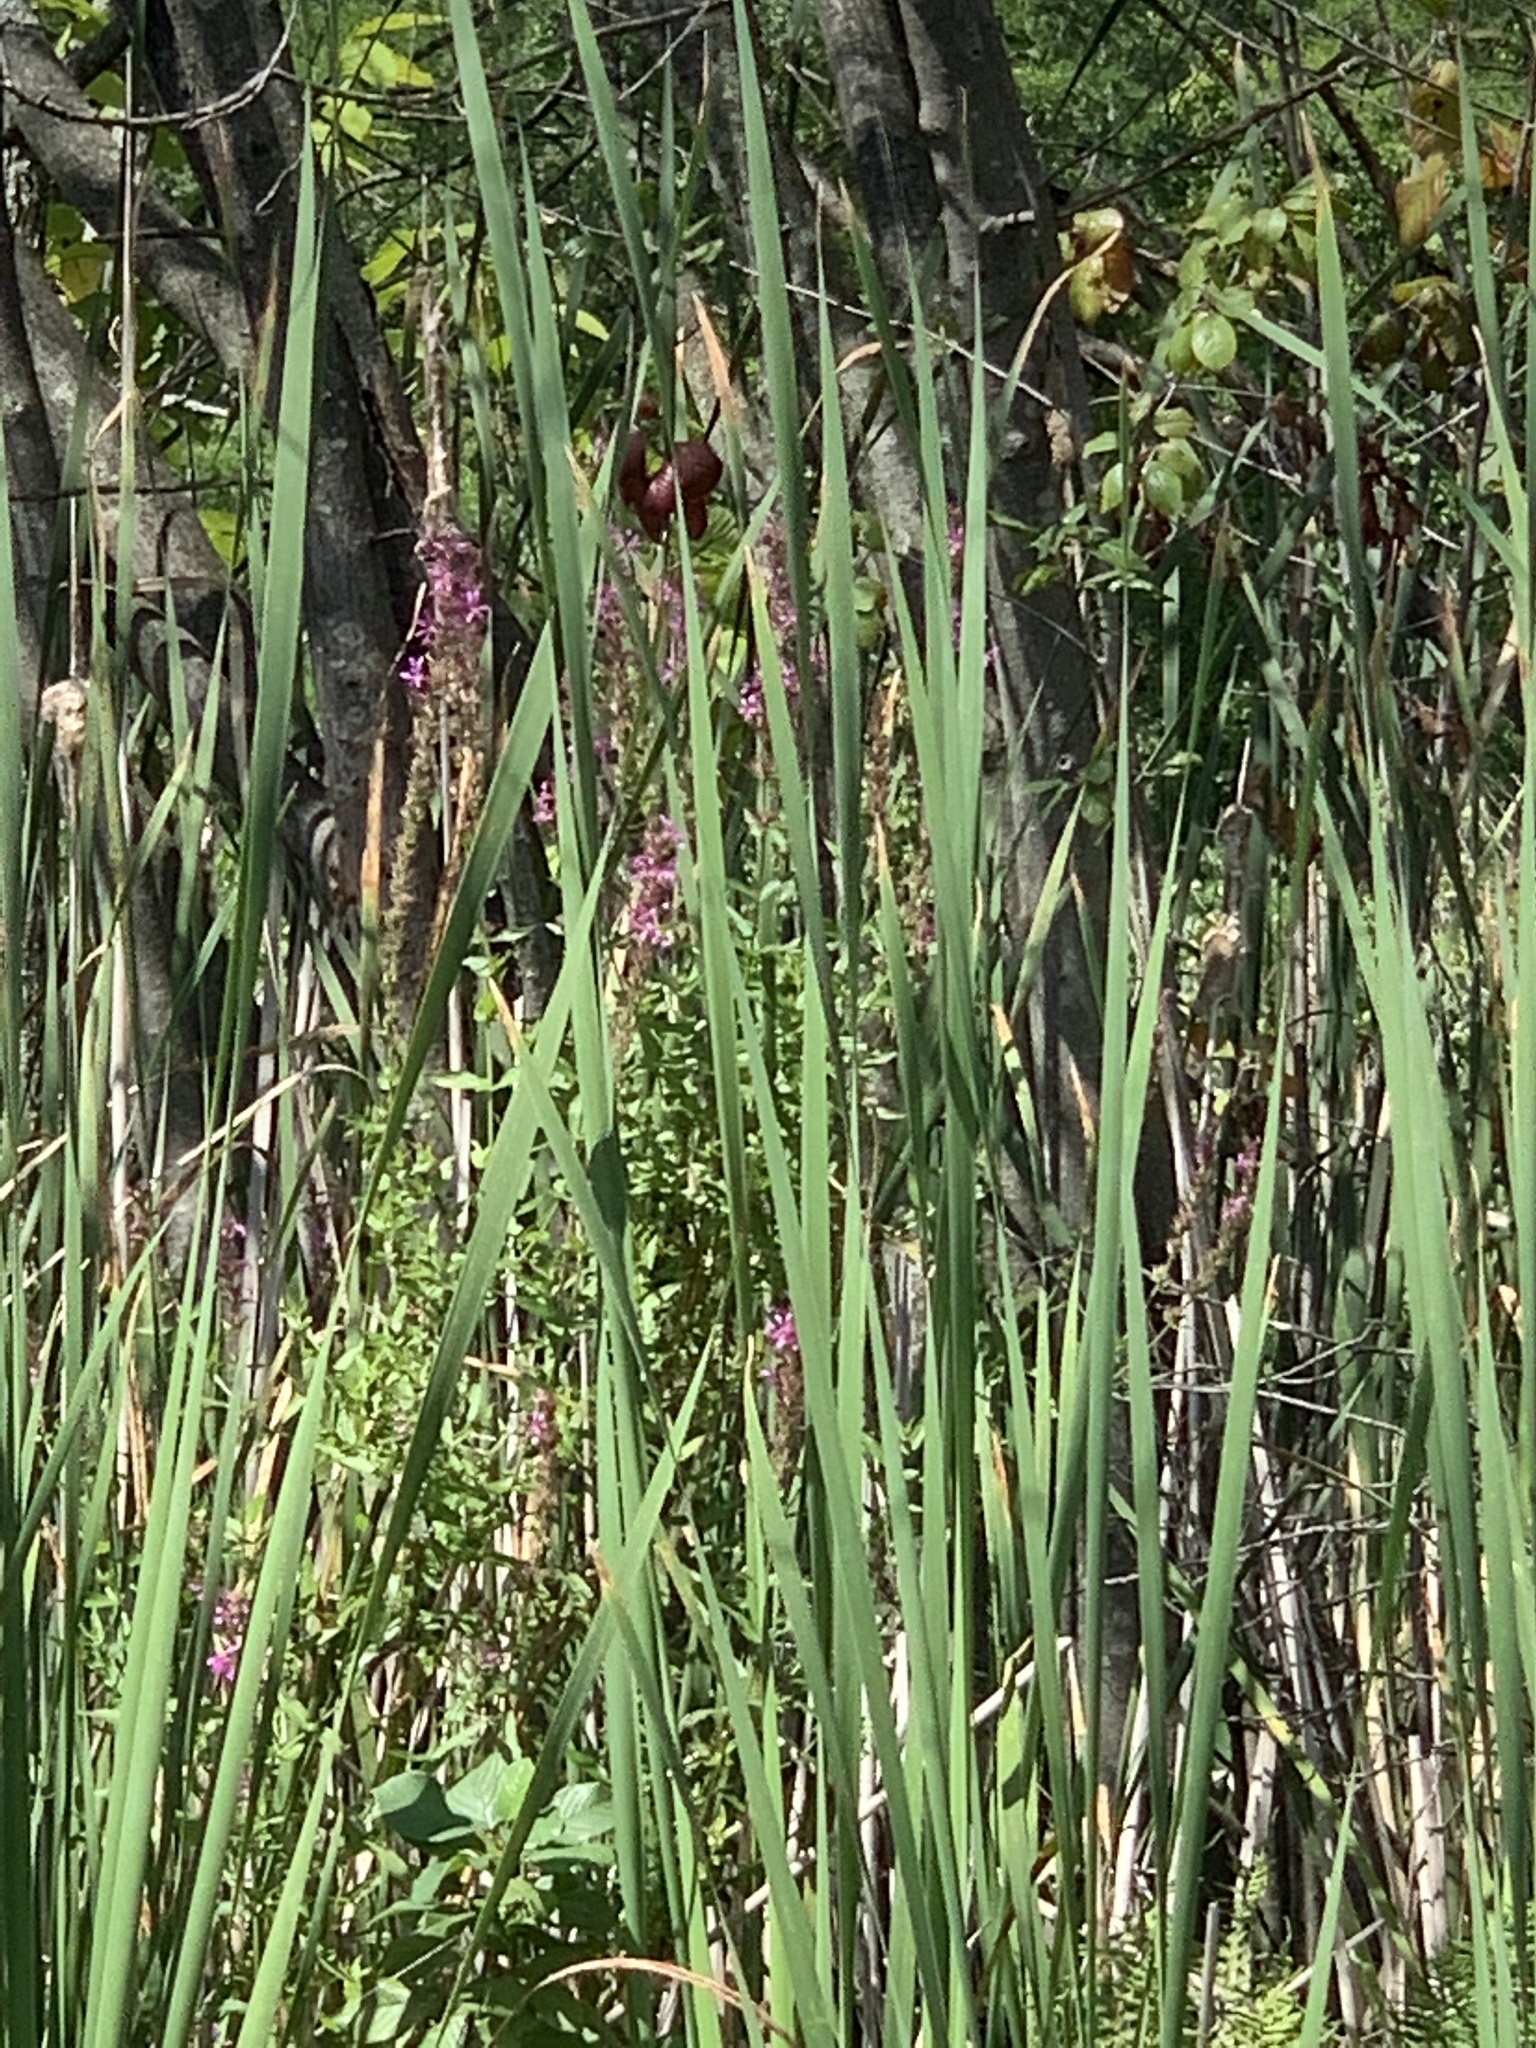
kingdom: Plantae
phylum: Tracheophyta
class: Magnoliopsida
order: Myrtales
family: Lythraceae
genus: Lythrum
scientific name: Lythrum salicaria
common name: Purple loosestrife
